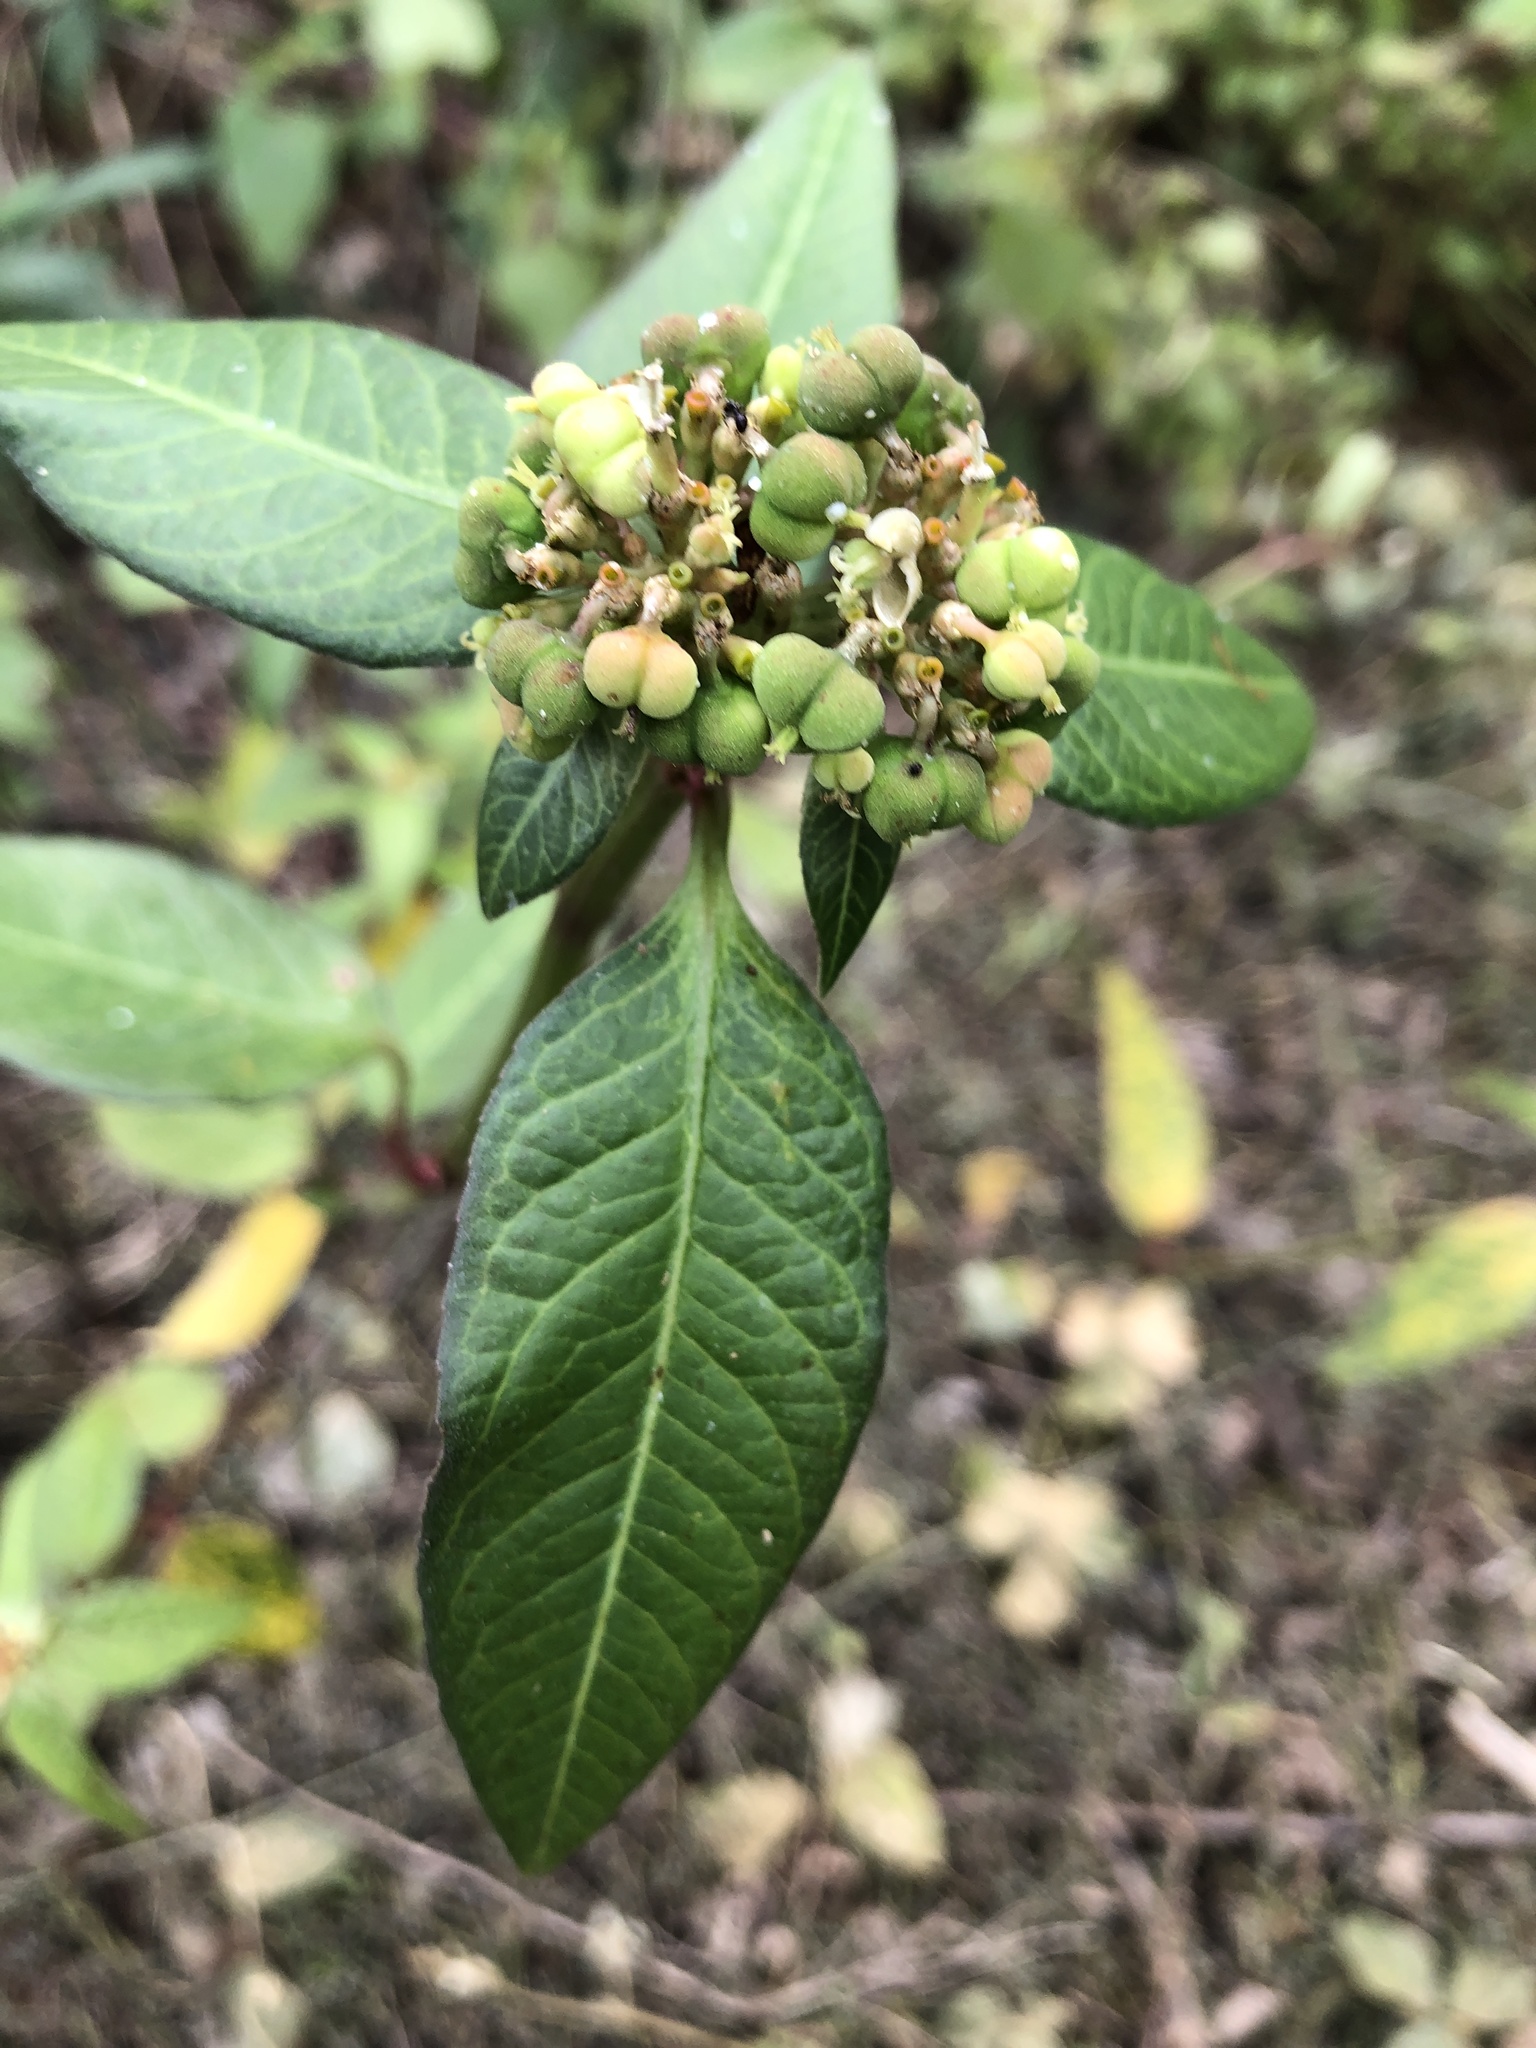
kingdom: Plantae
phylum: Tracheophyta
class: Magnoliopsida
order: Malpighiales
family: Euphorbiaceae
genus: Euphorbia
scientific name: Euphorbia heterophylla
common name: Mexican fireplant
